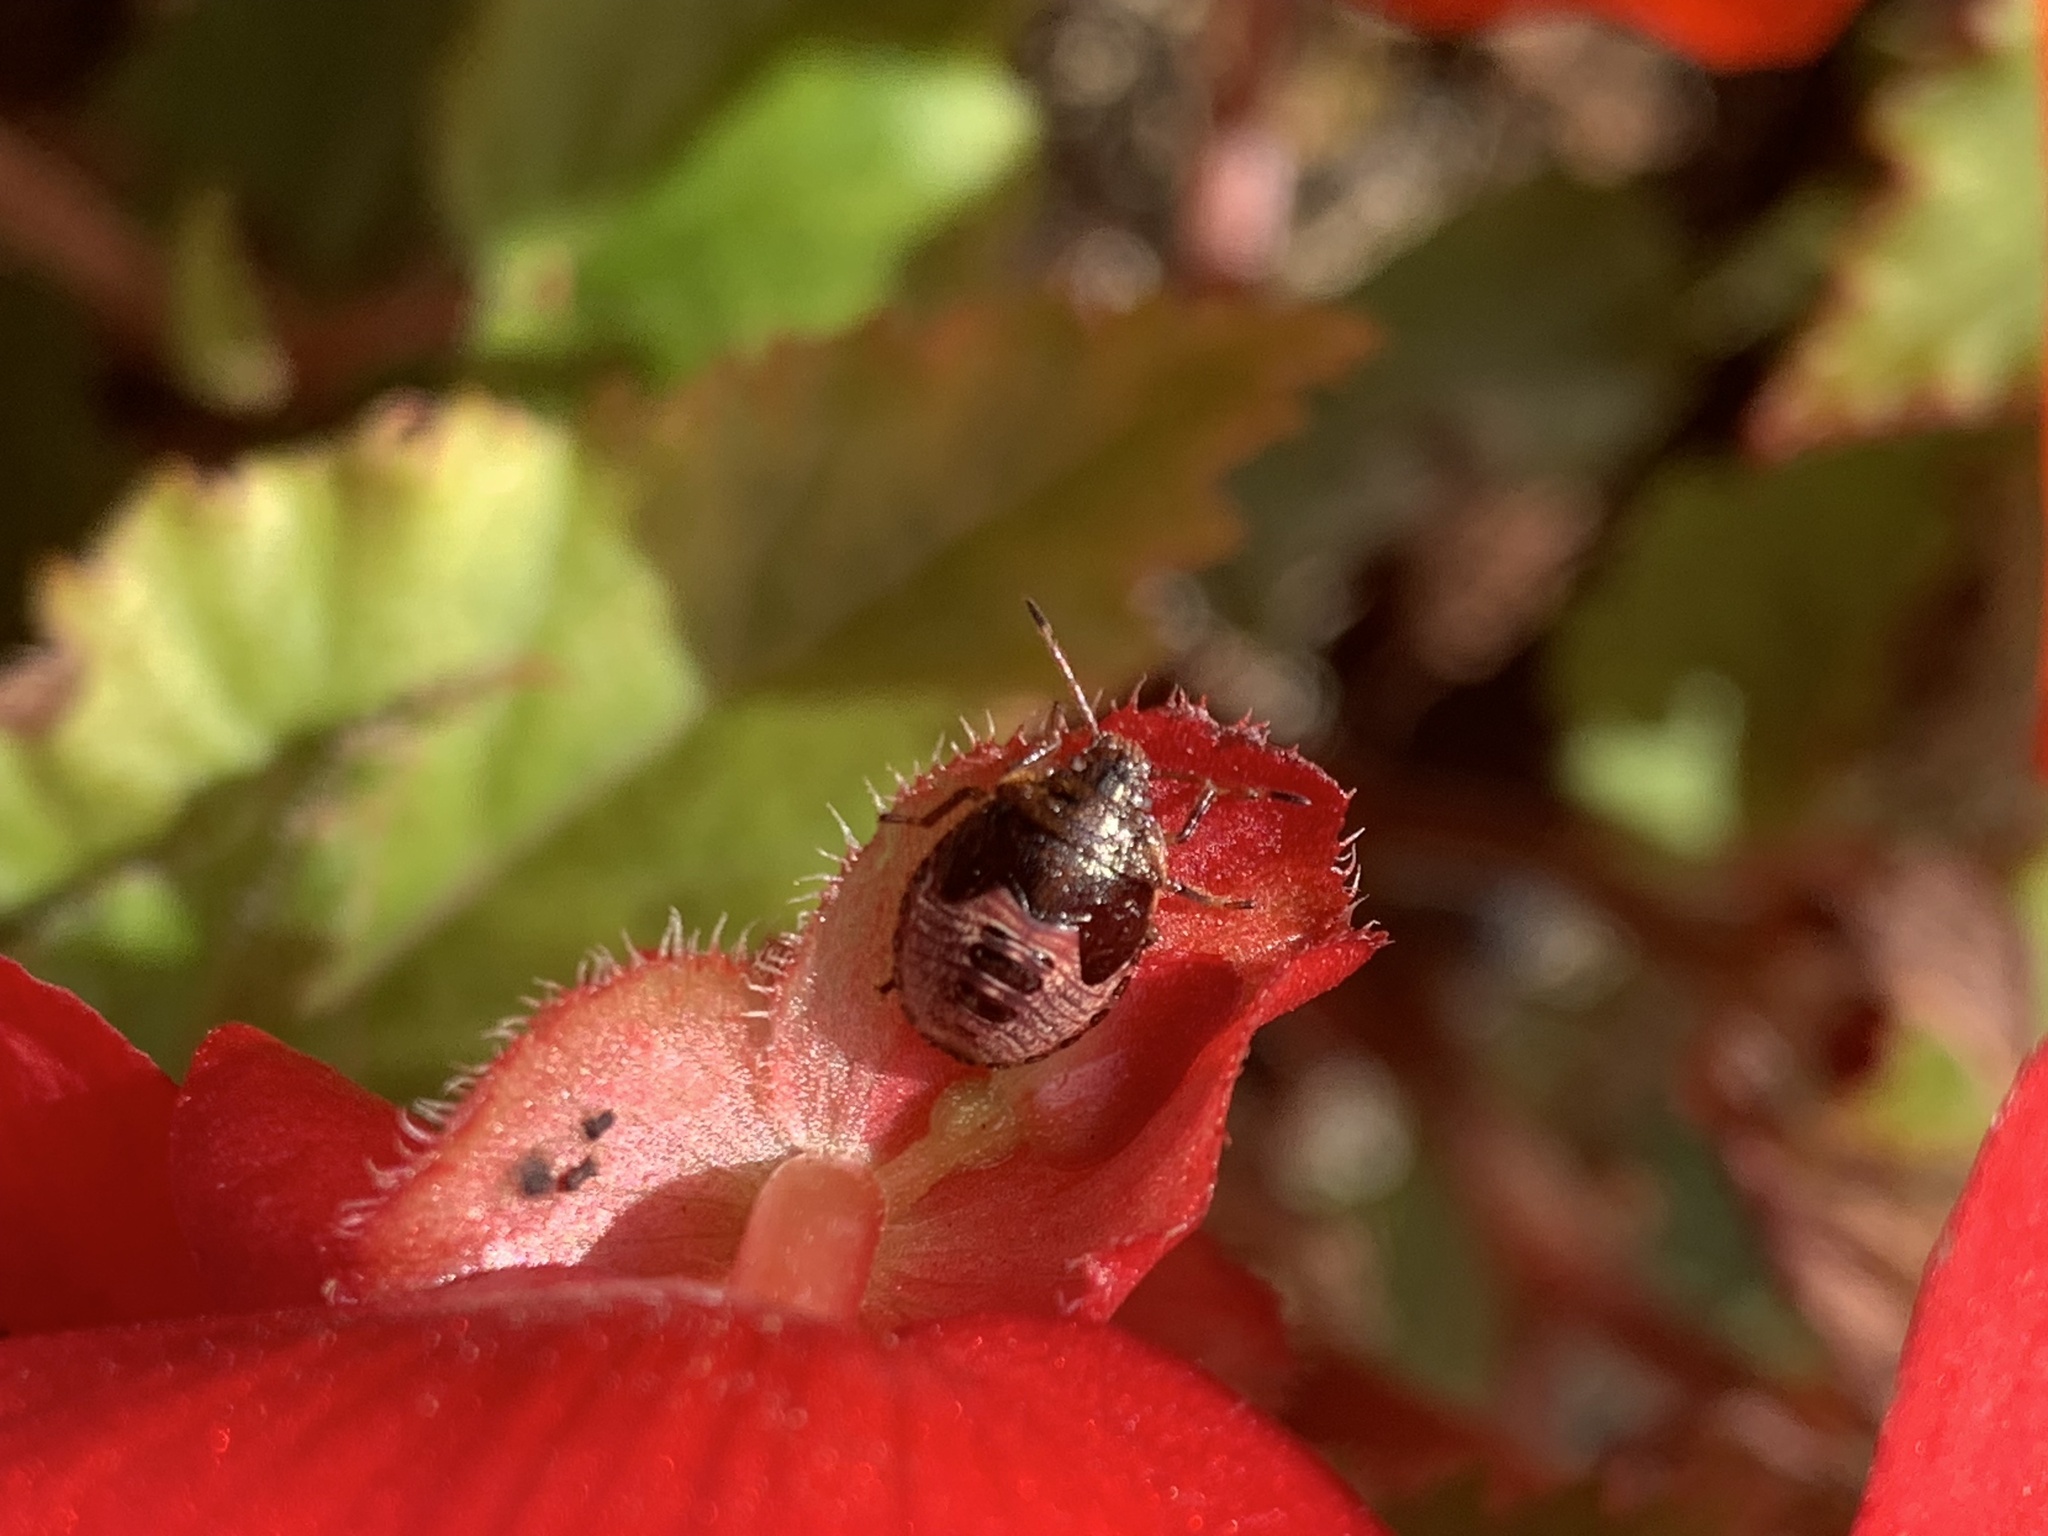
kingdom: Animalia
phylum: Arthropoda
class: Insecta
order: Hemiptera
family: Pentatomidae
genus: Holcostethus
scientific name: Holcostethus limbolarius
